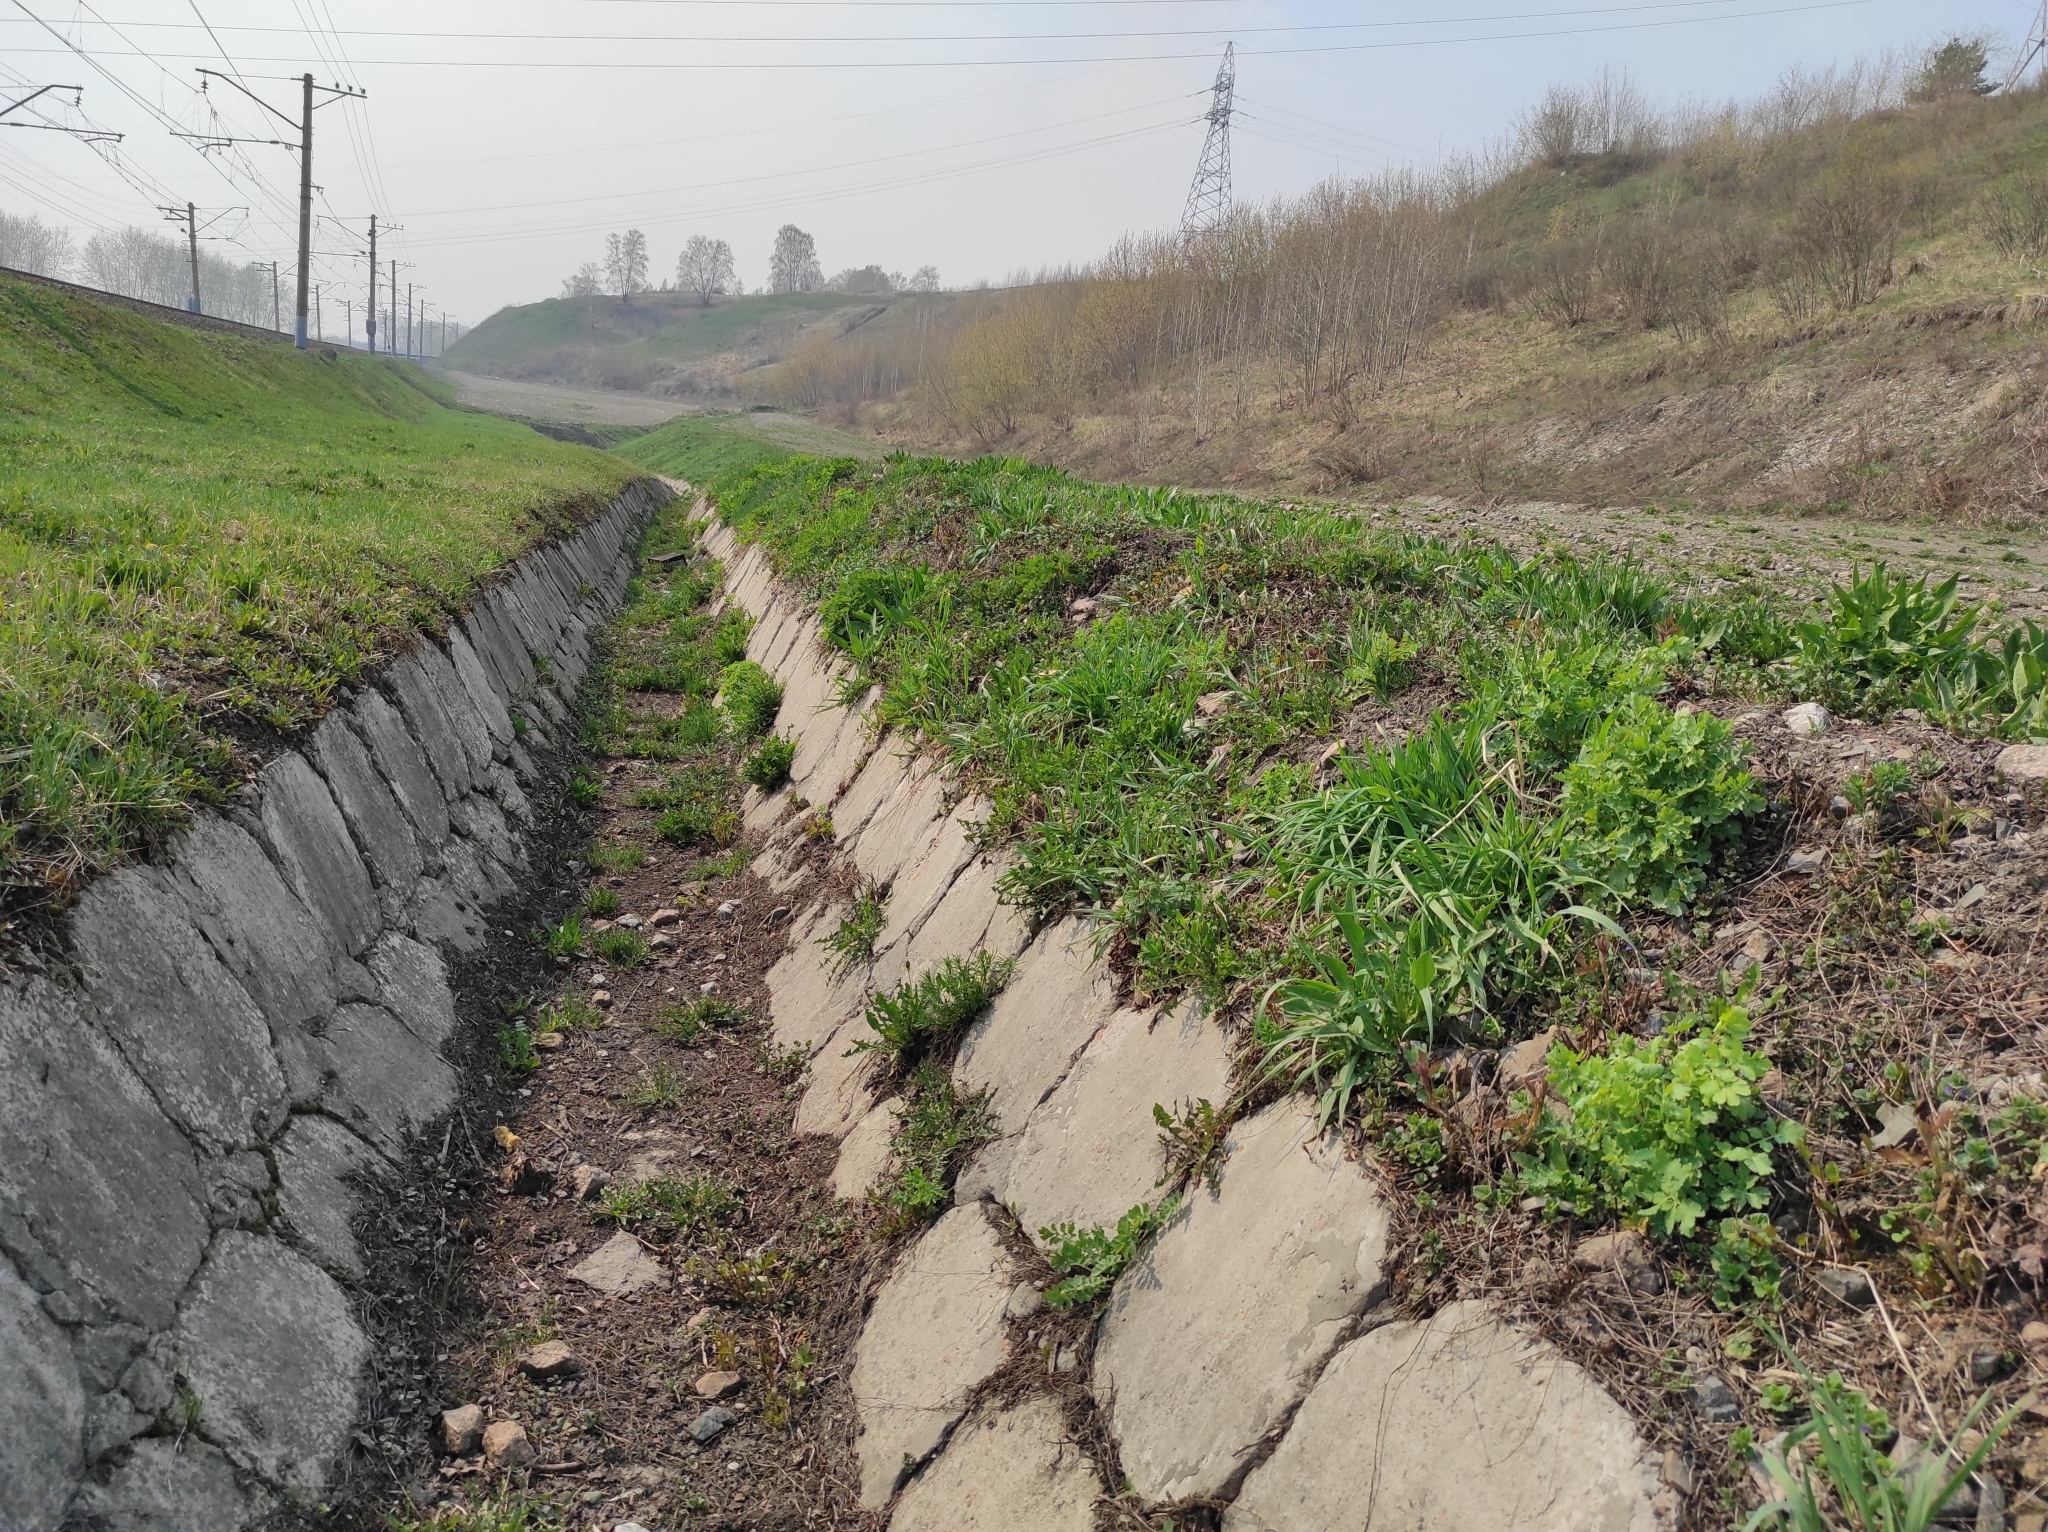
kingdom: Animalia
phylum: Arthropoda
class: Insecta
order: Lepidoptera
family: Papilionidae
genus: Papilio
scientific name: Papilio machaon
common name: Swallowtail
